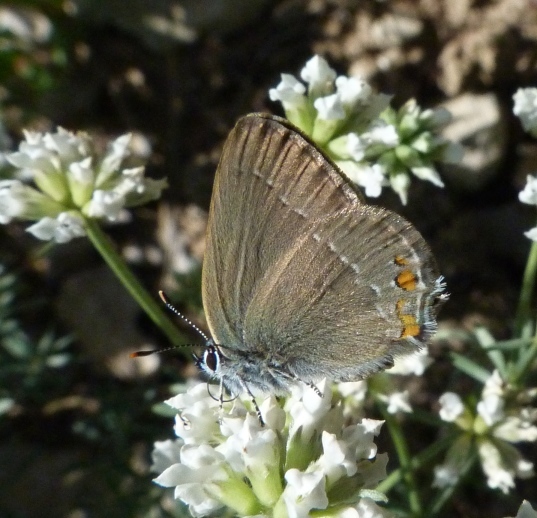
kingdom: Animalia
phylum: Arthropoda
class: Insecta
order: Lepidoptera
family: Lycaenidae
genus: Strymon
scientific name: Strymon acaciae
